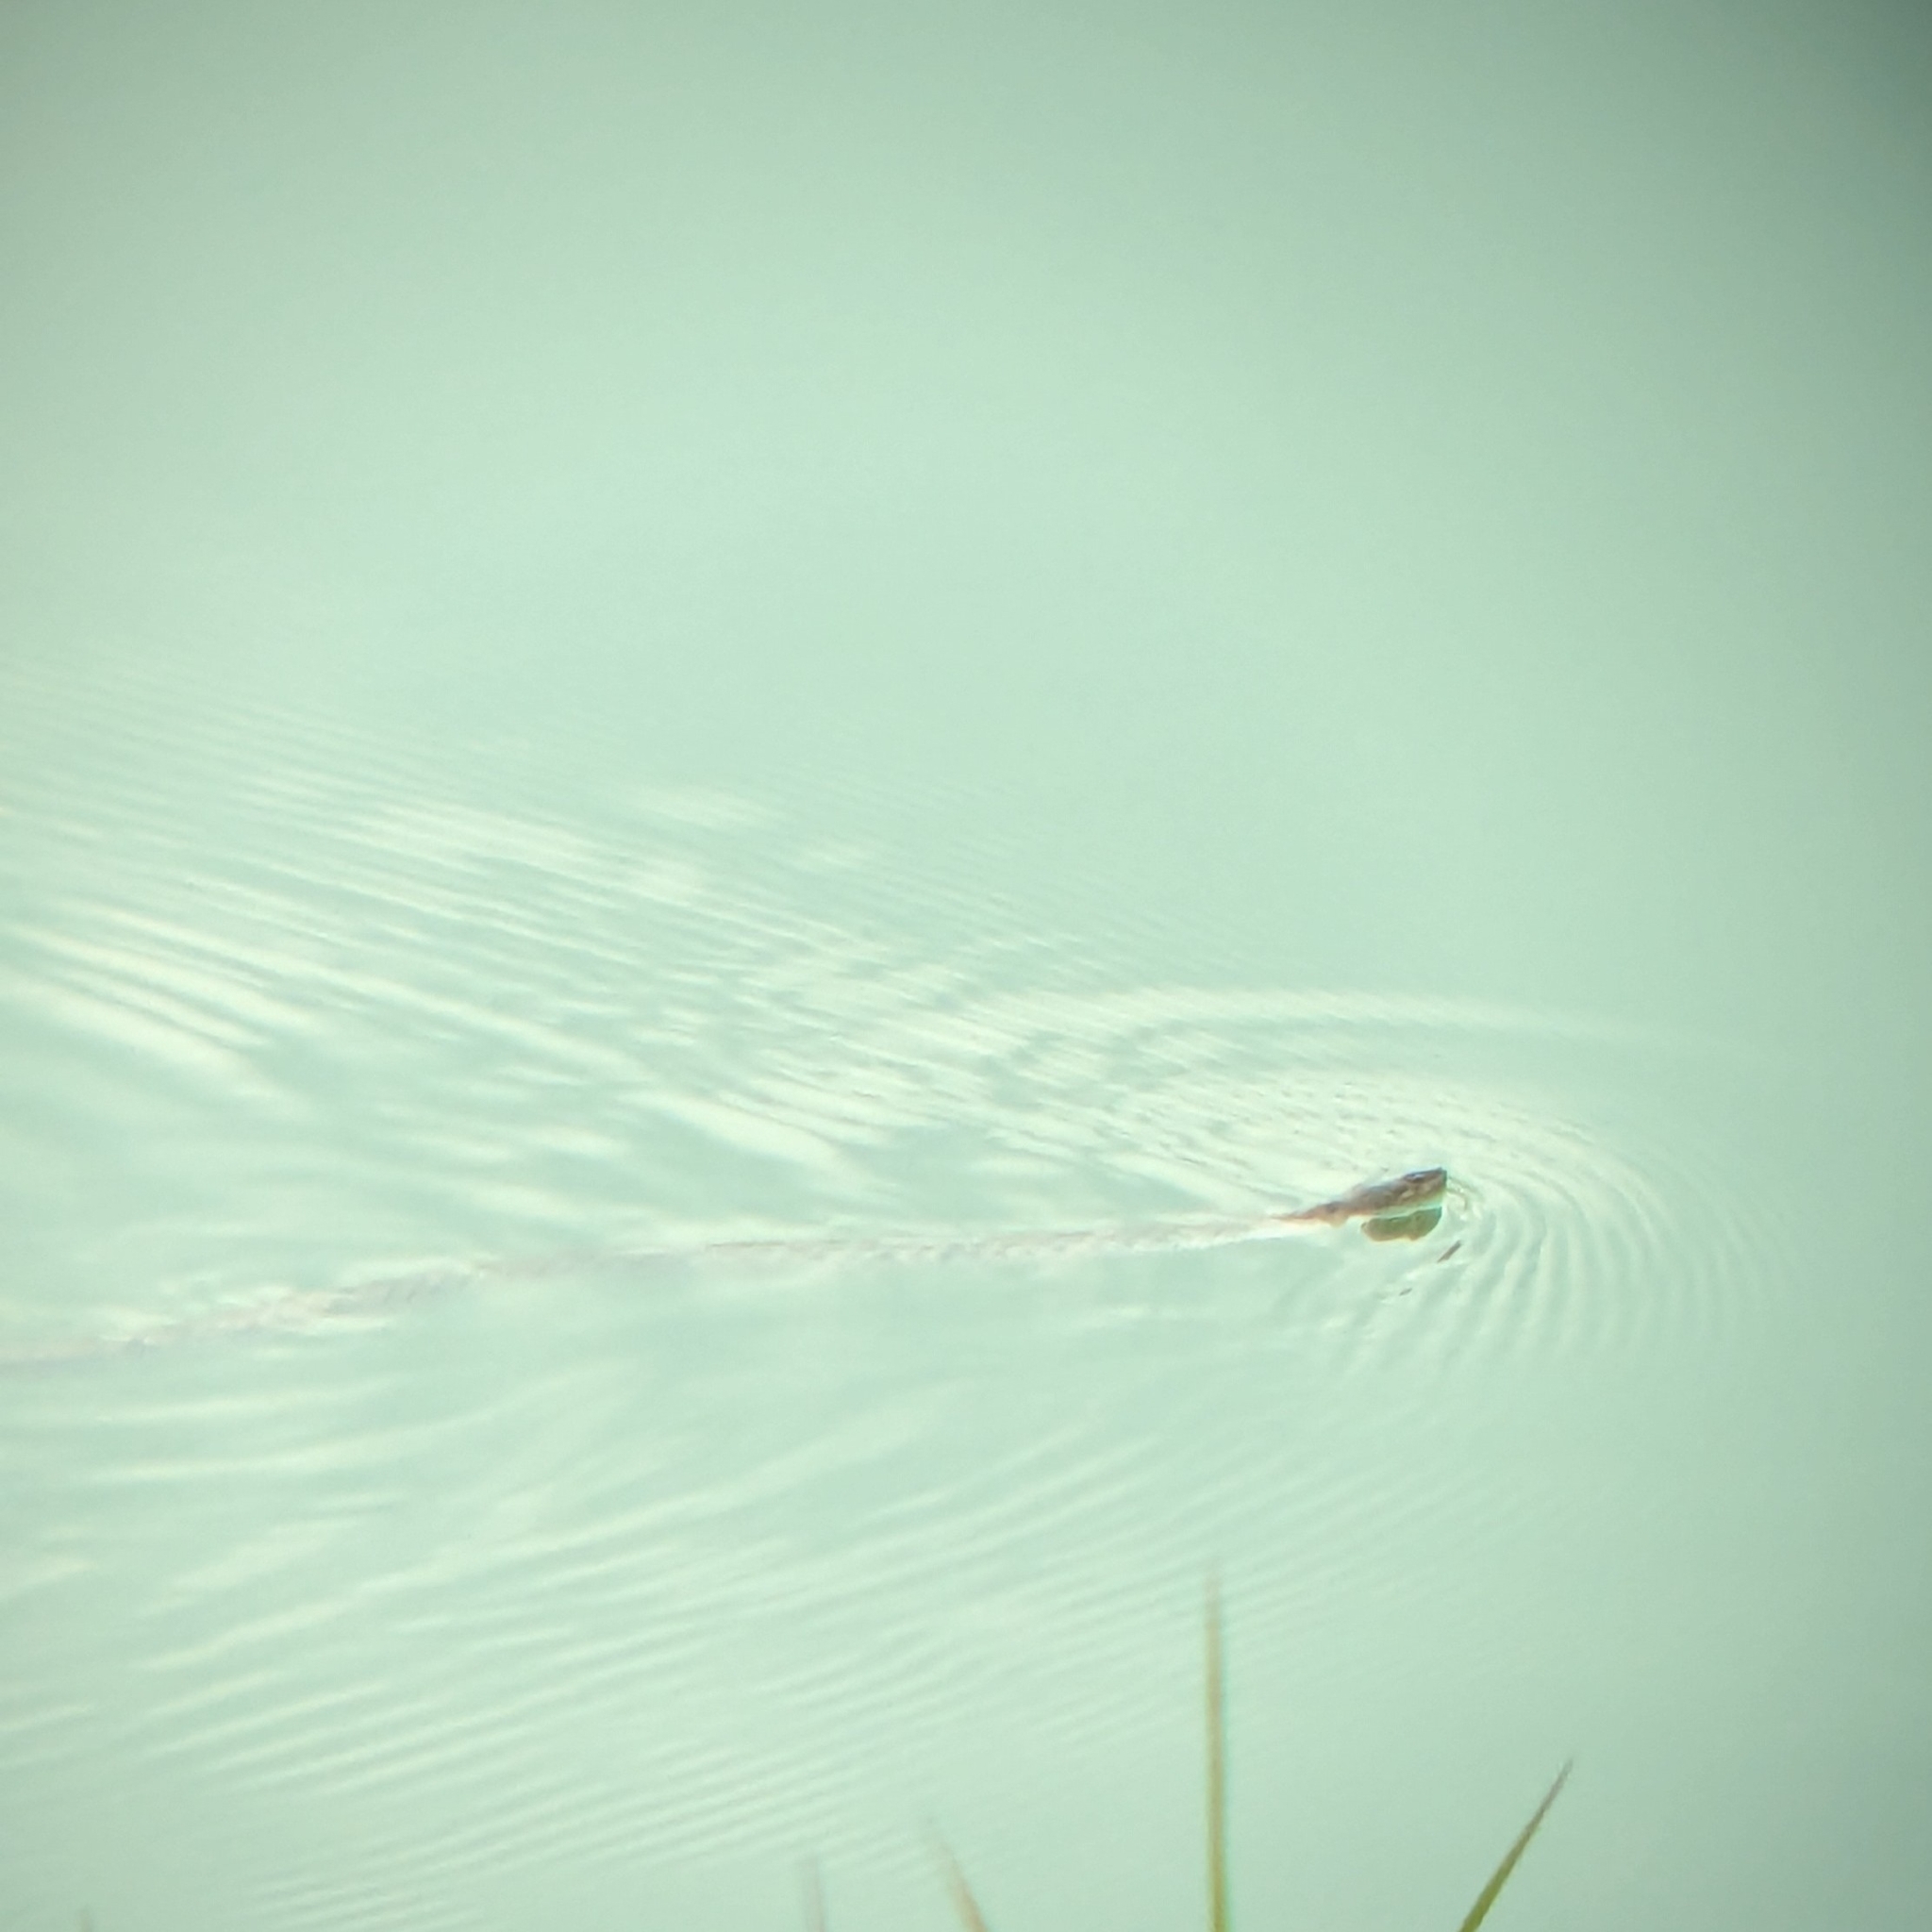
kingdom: Animalia
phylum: Chordata
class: Squamata
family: Colubridae
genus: Fowlea
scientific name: Fowlea piscator
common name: Asiatic water snake
